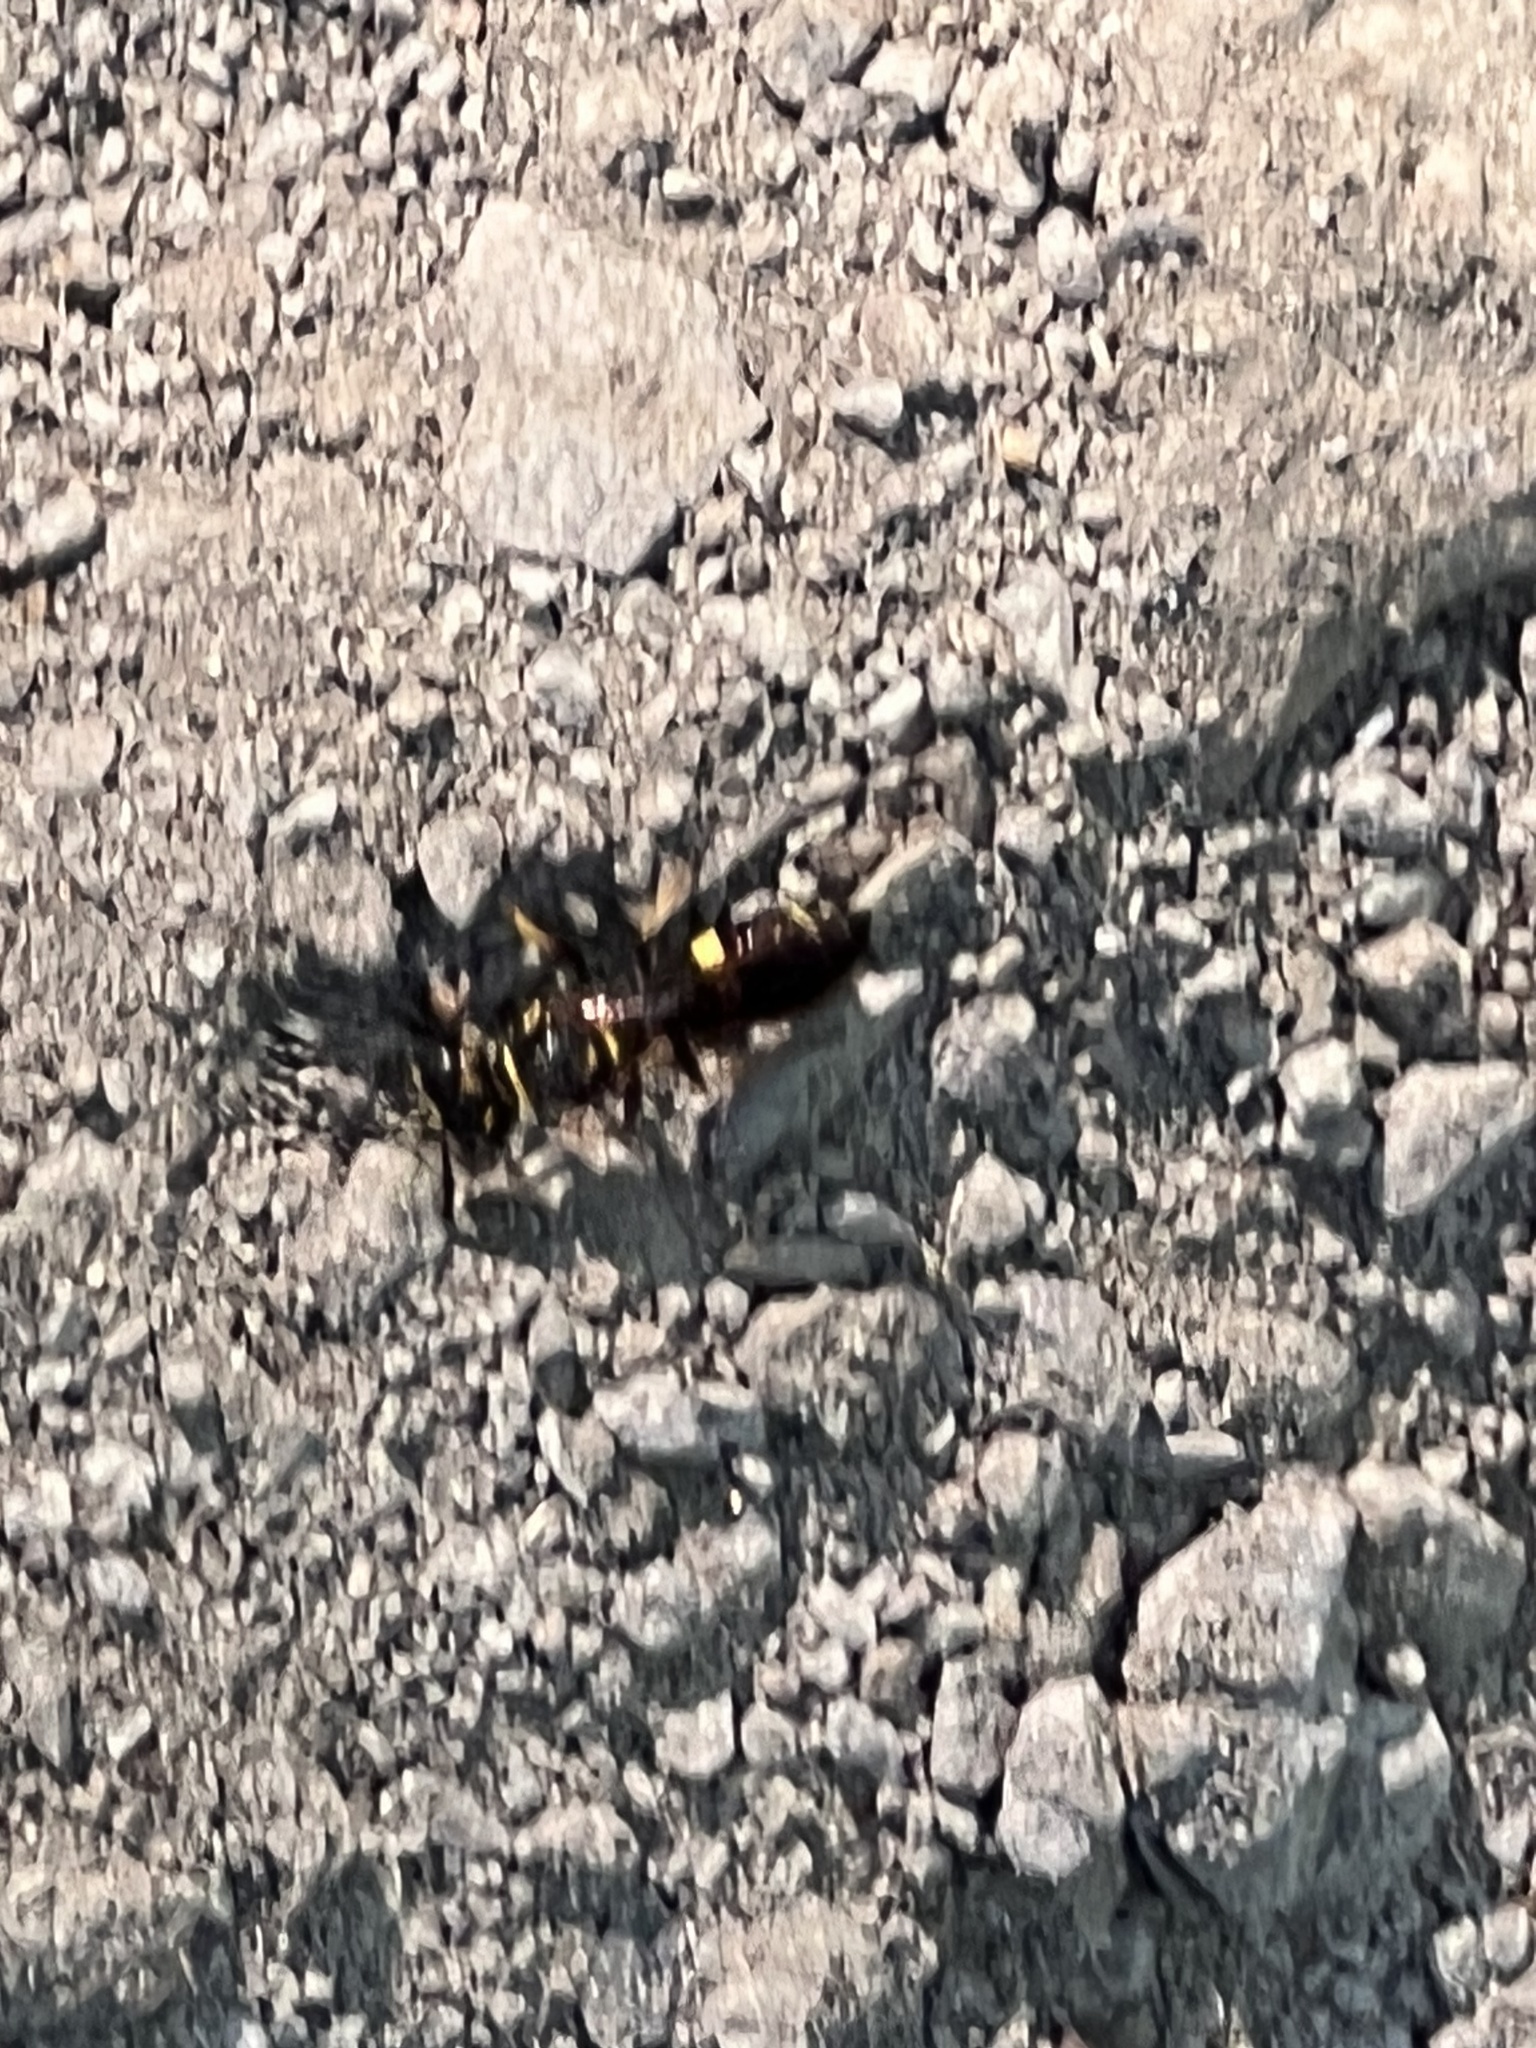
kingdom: Animalia
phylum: Arthropoda
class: Insecta
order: Hymenoptera
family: Crabronidae
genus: Philanthus
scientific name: Philanthus gibbosus
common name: Humped beewolf
